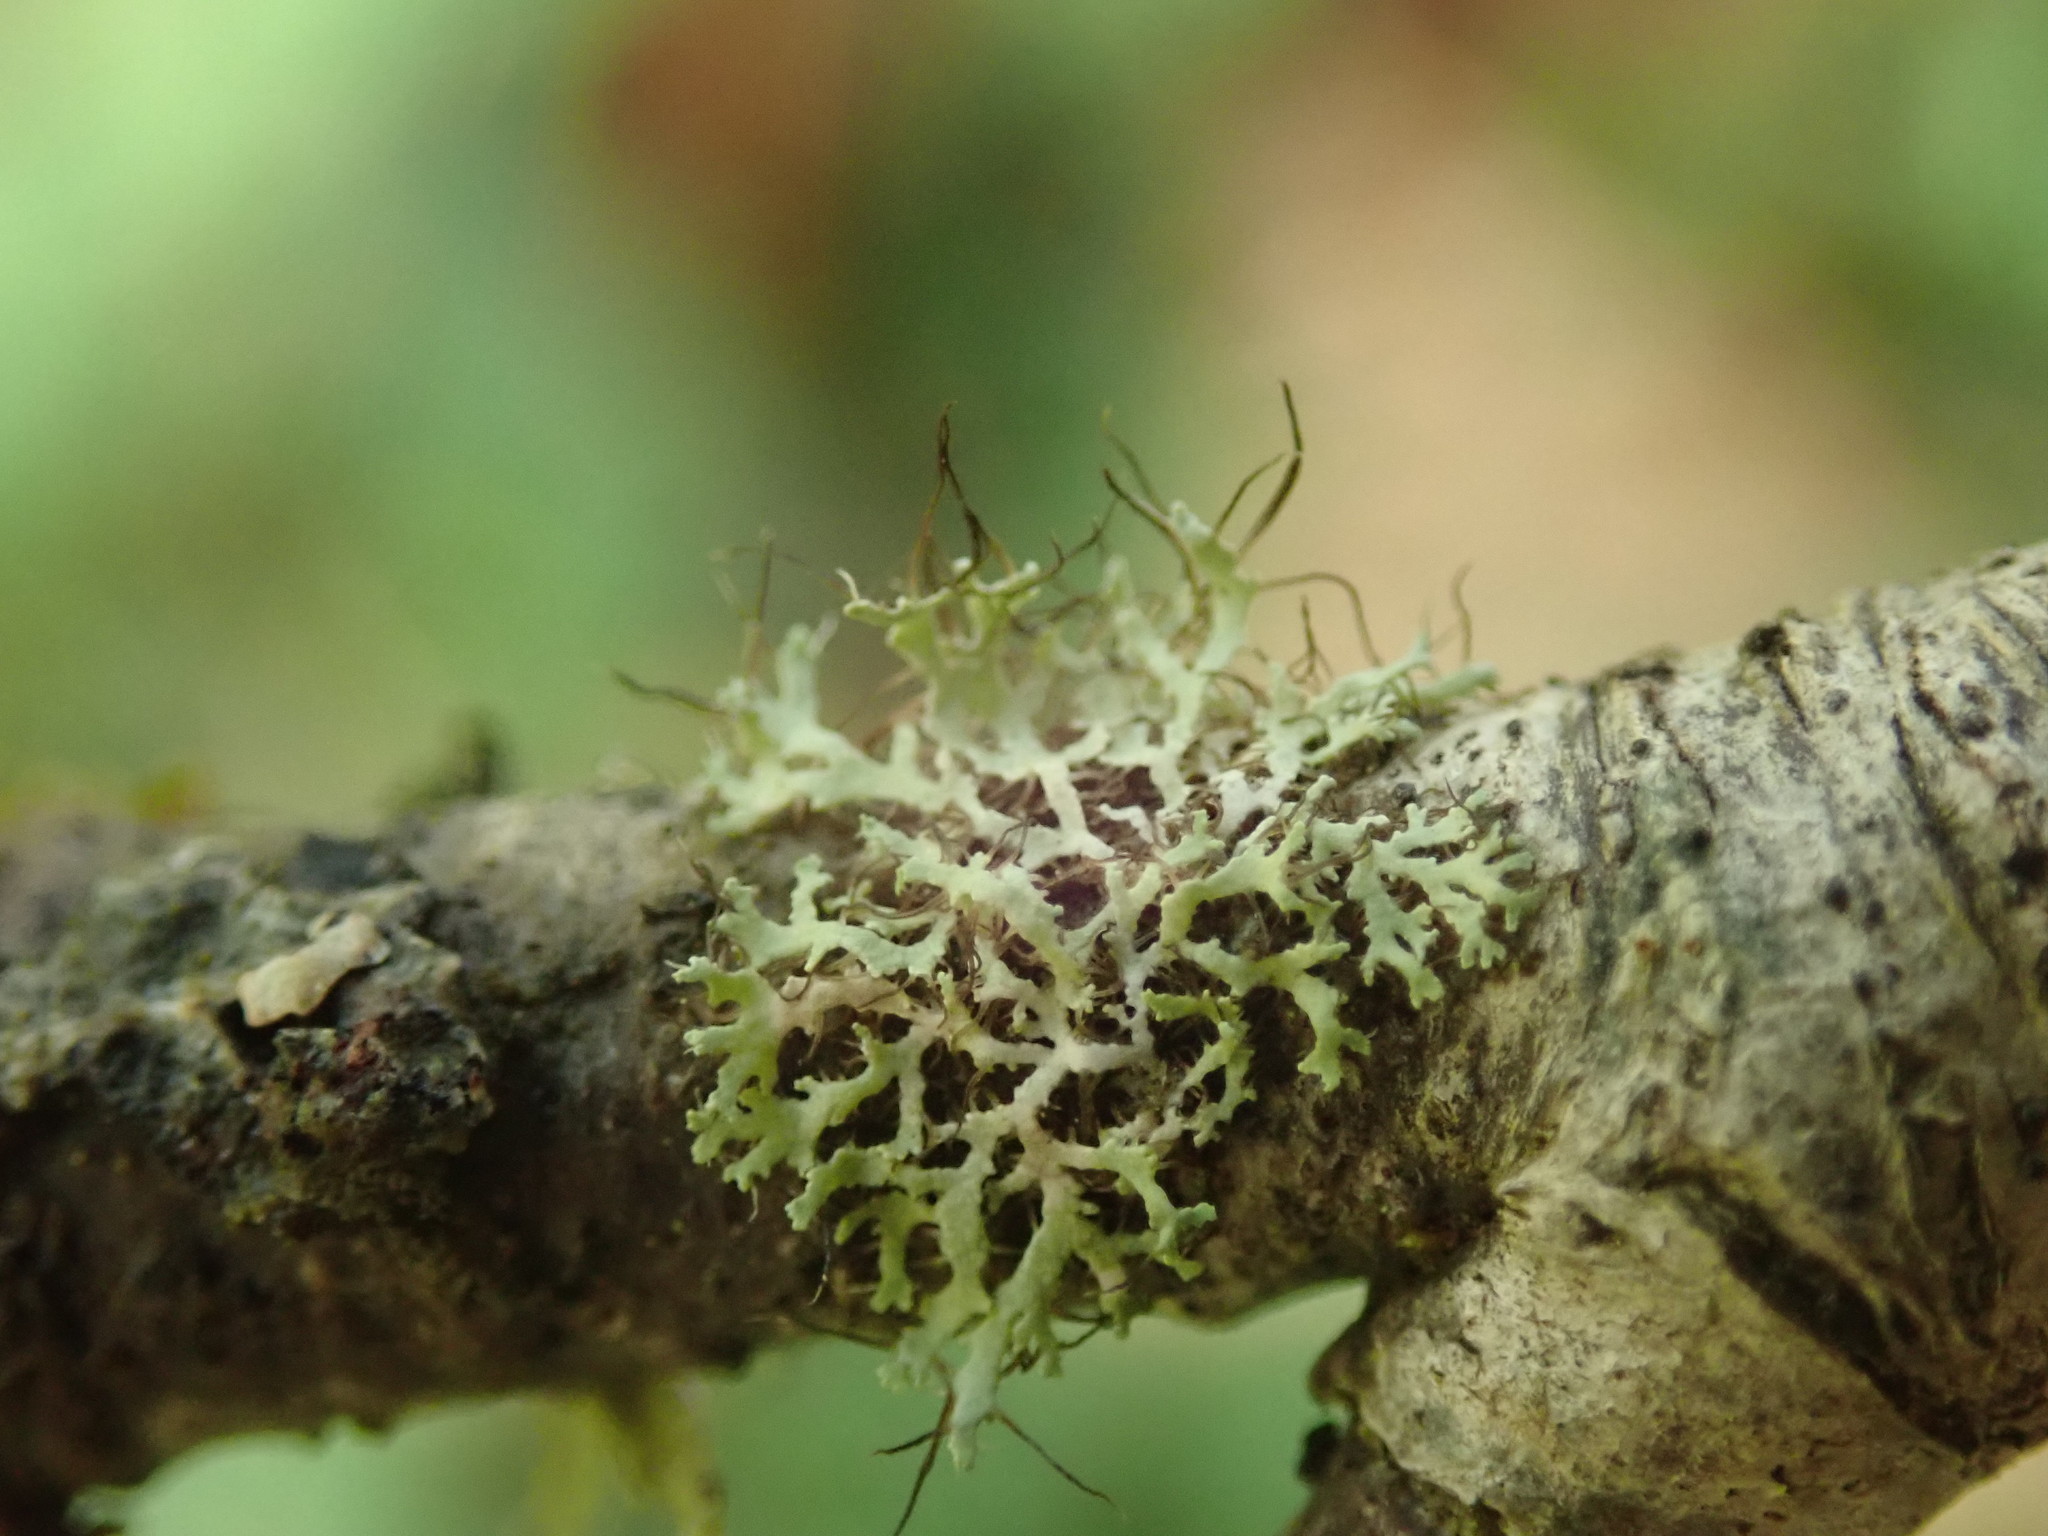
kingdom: Fungi
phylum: Ascomycota
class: Lecanoromycetes
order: Caliciales
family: Physciaceae
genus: Physcia
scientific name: Physcia tenella
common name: Fringed rosette lichen
